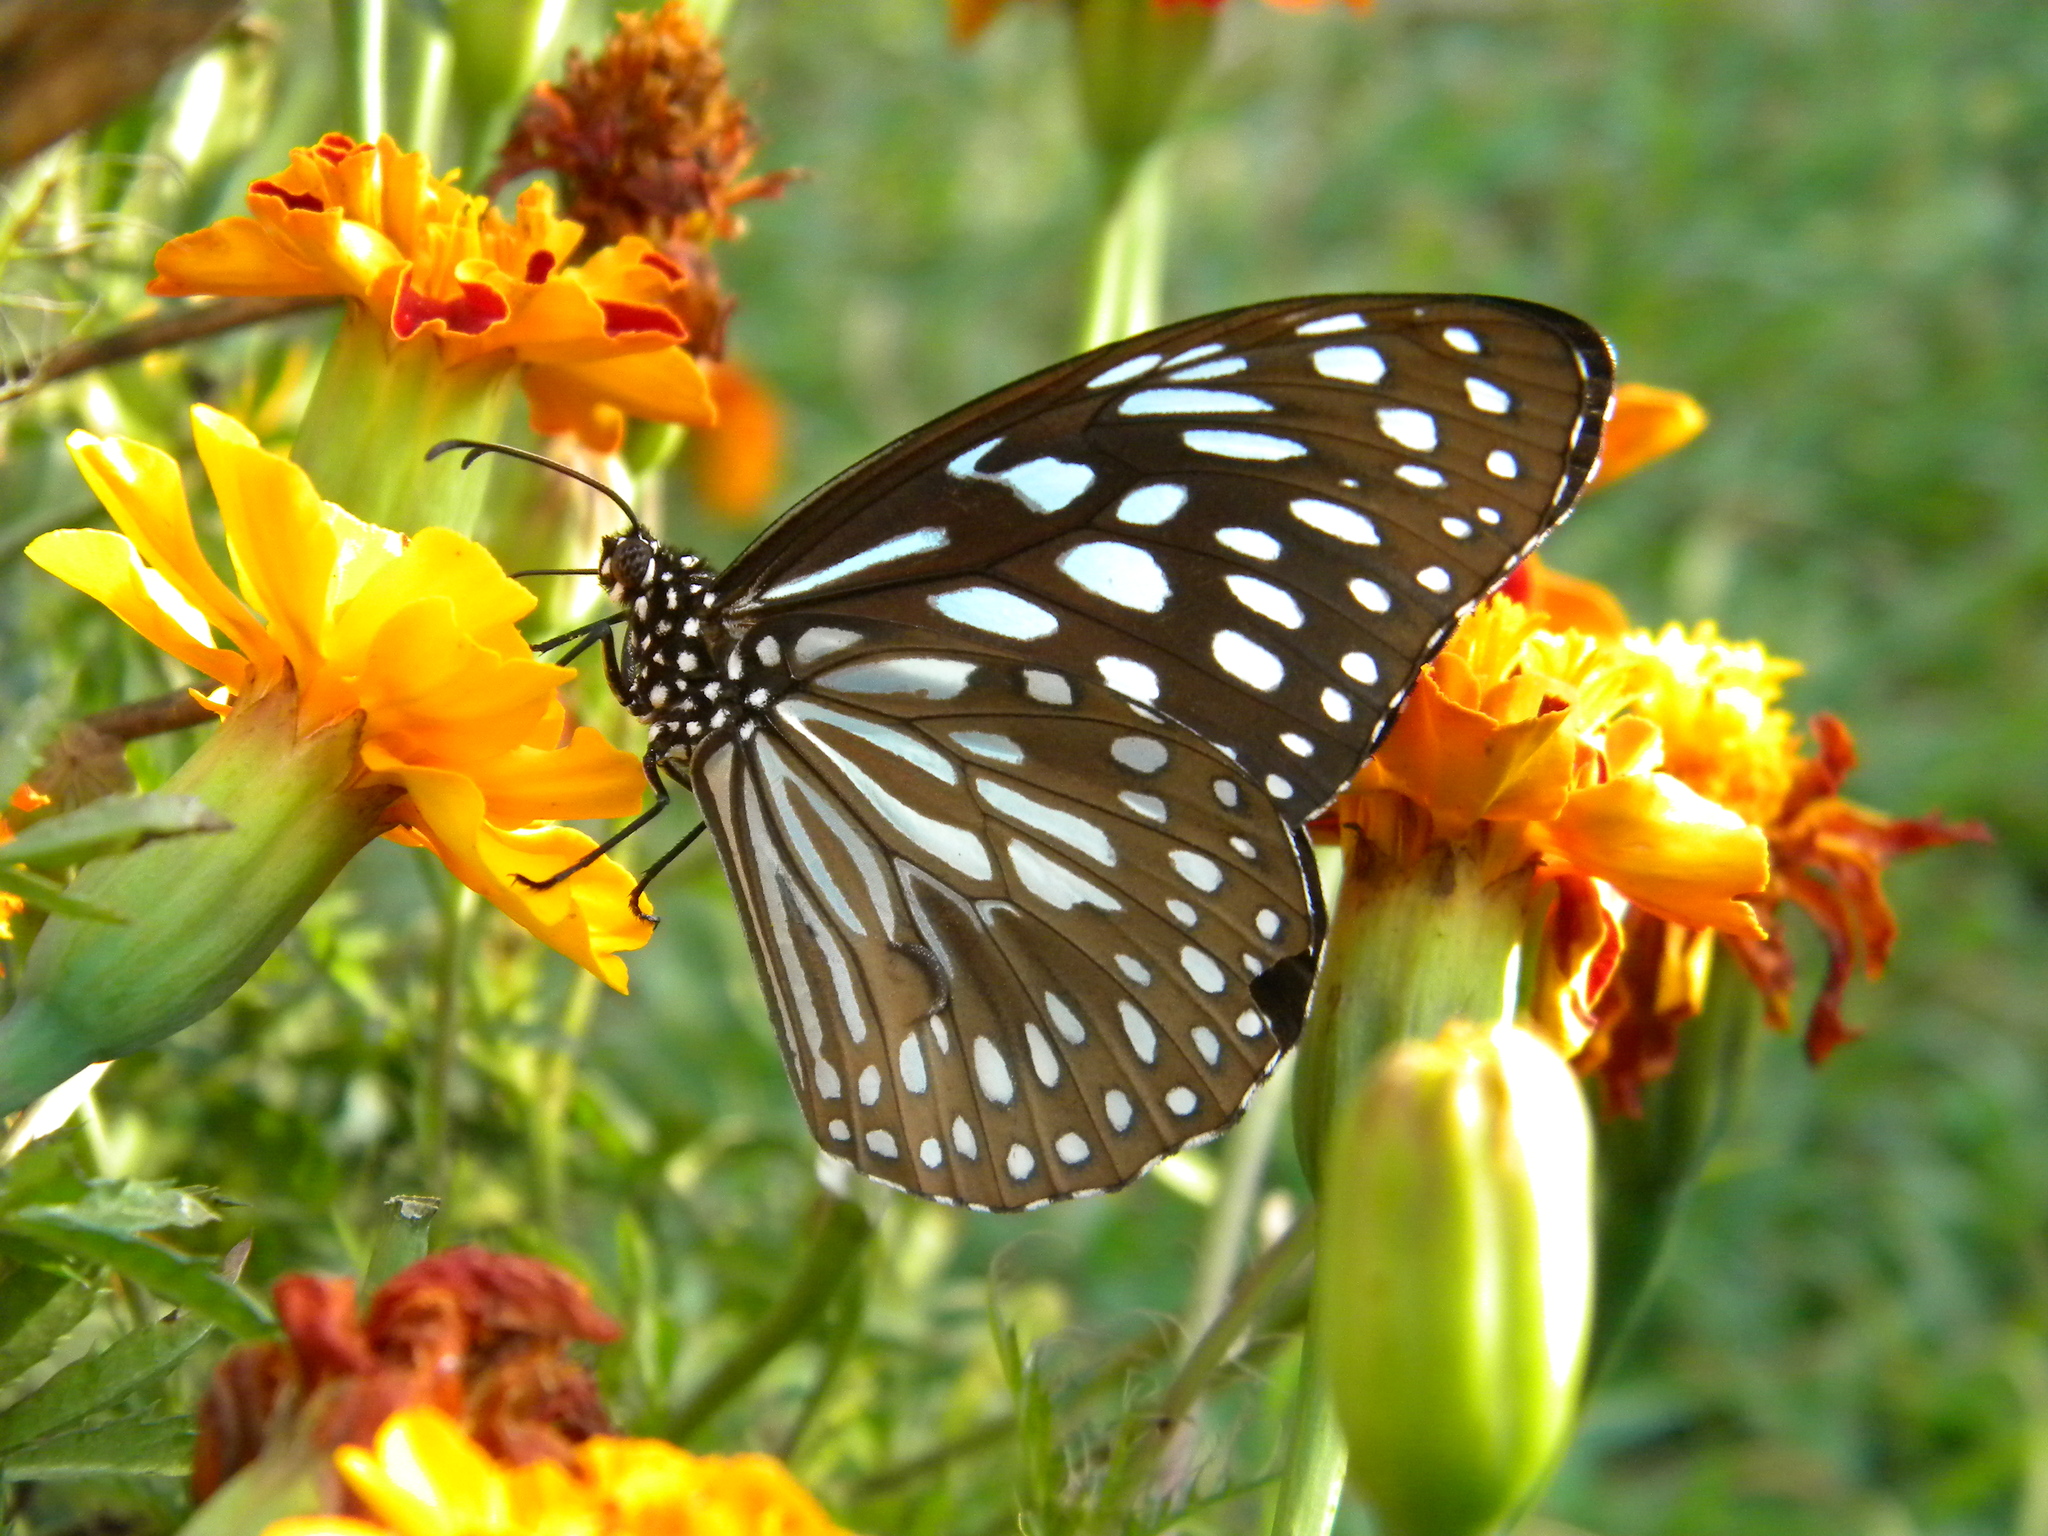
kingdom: Animalia
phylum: Arthropoda
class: Insecta
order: Lepidoptera
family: Nymphalidae
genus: Tirumala
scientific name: Tirumala septentrionis
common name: Dark blue tiger butterfly
